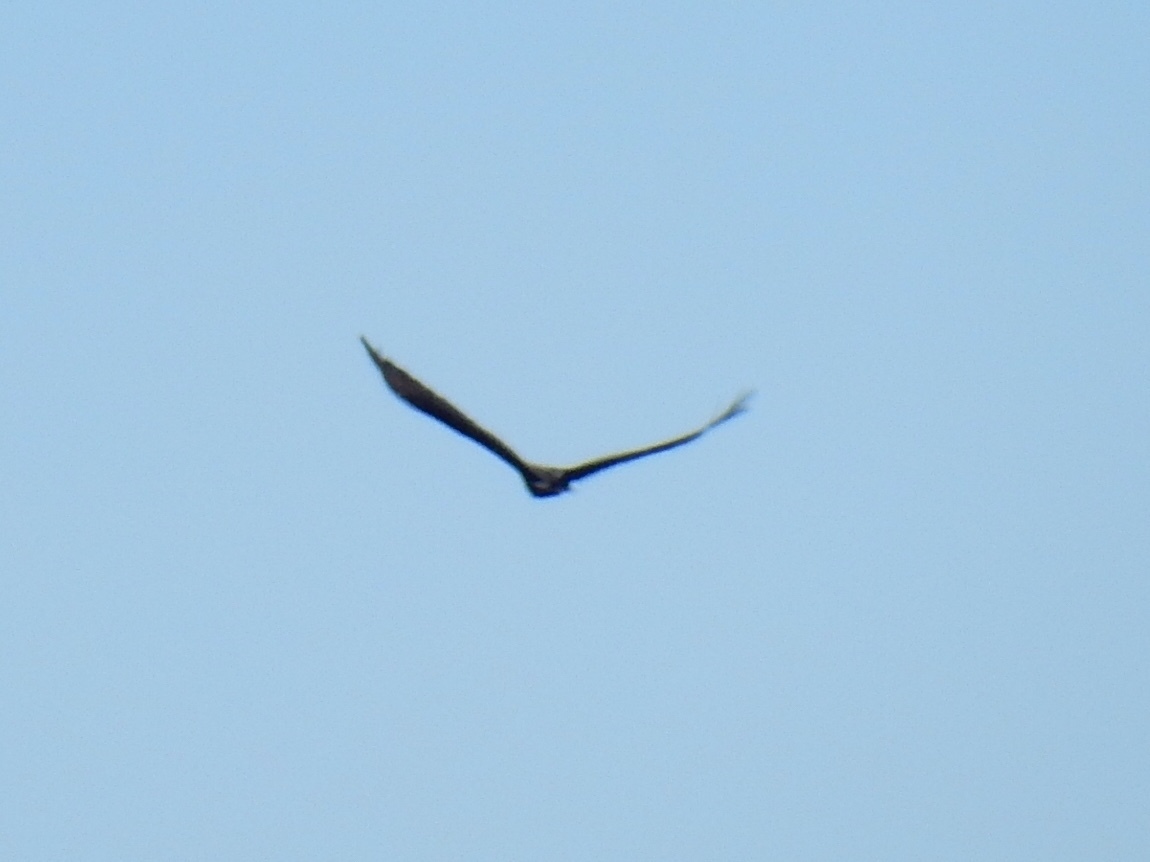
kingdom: Animalia
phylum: Chordata
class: Aves
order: Accipitriformes
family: Cathartidae
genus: Cathartes
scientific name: Cathartes aura
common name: Turkey vulture
